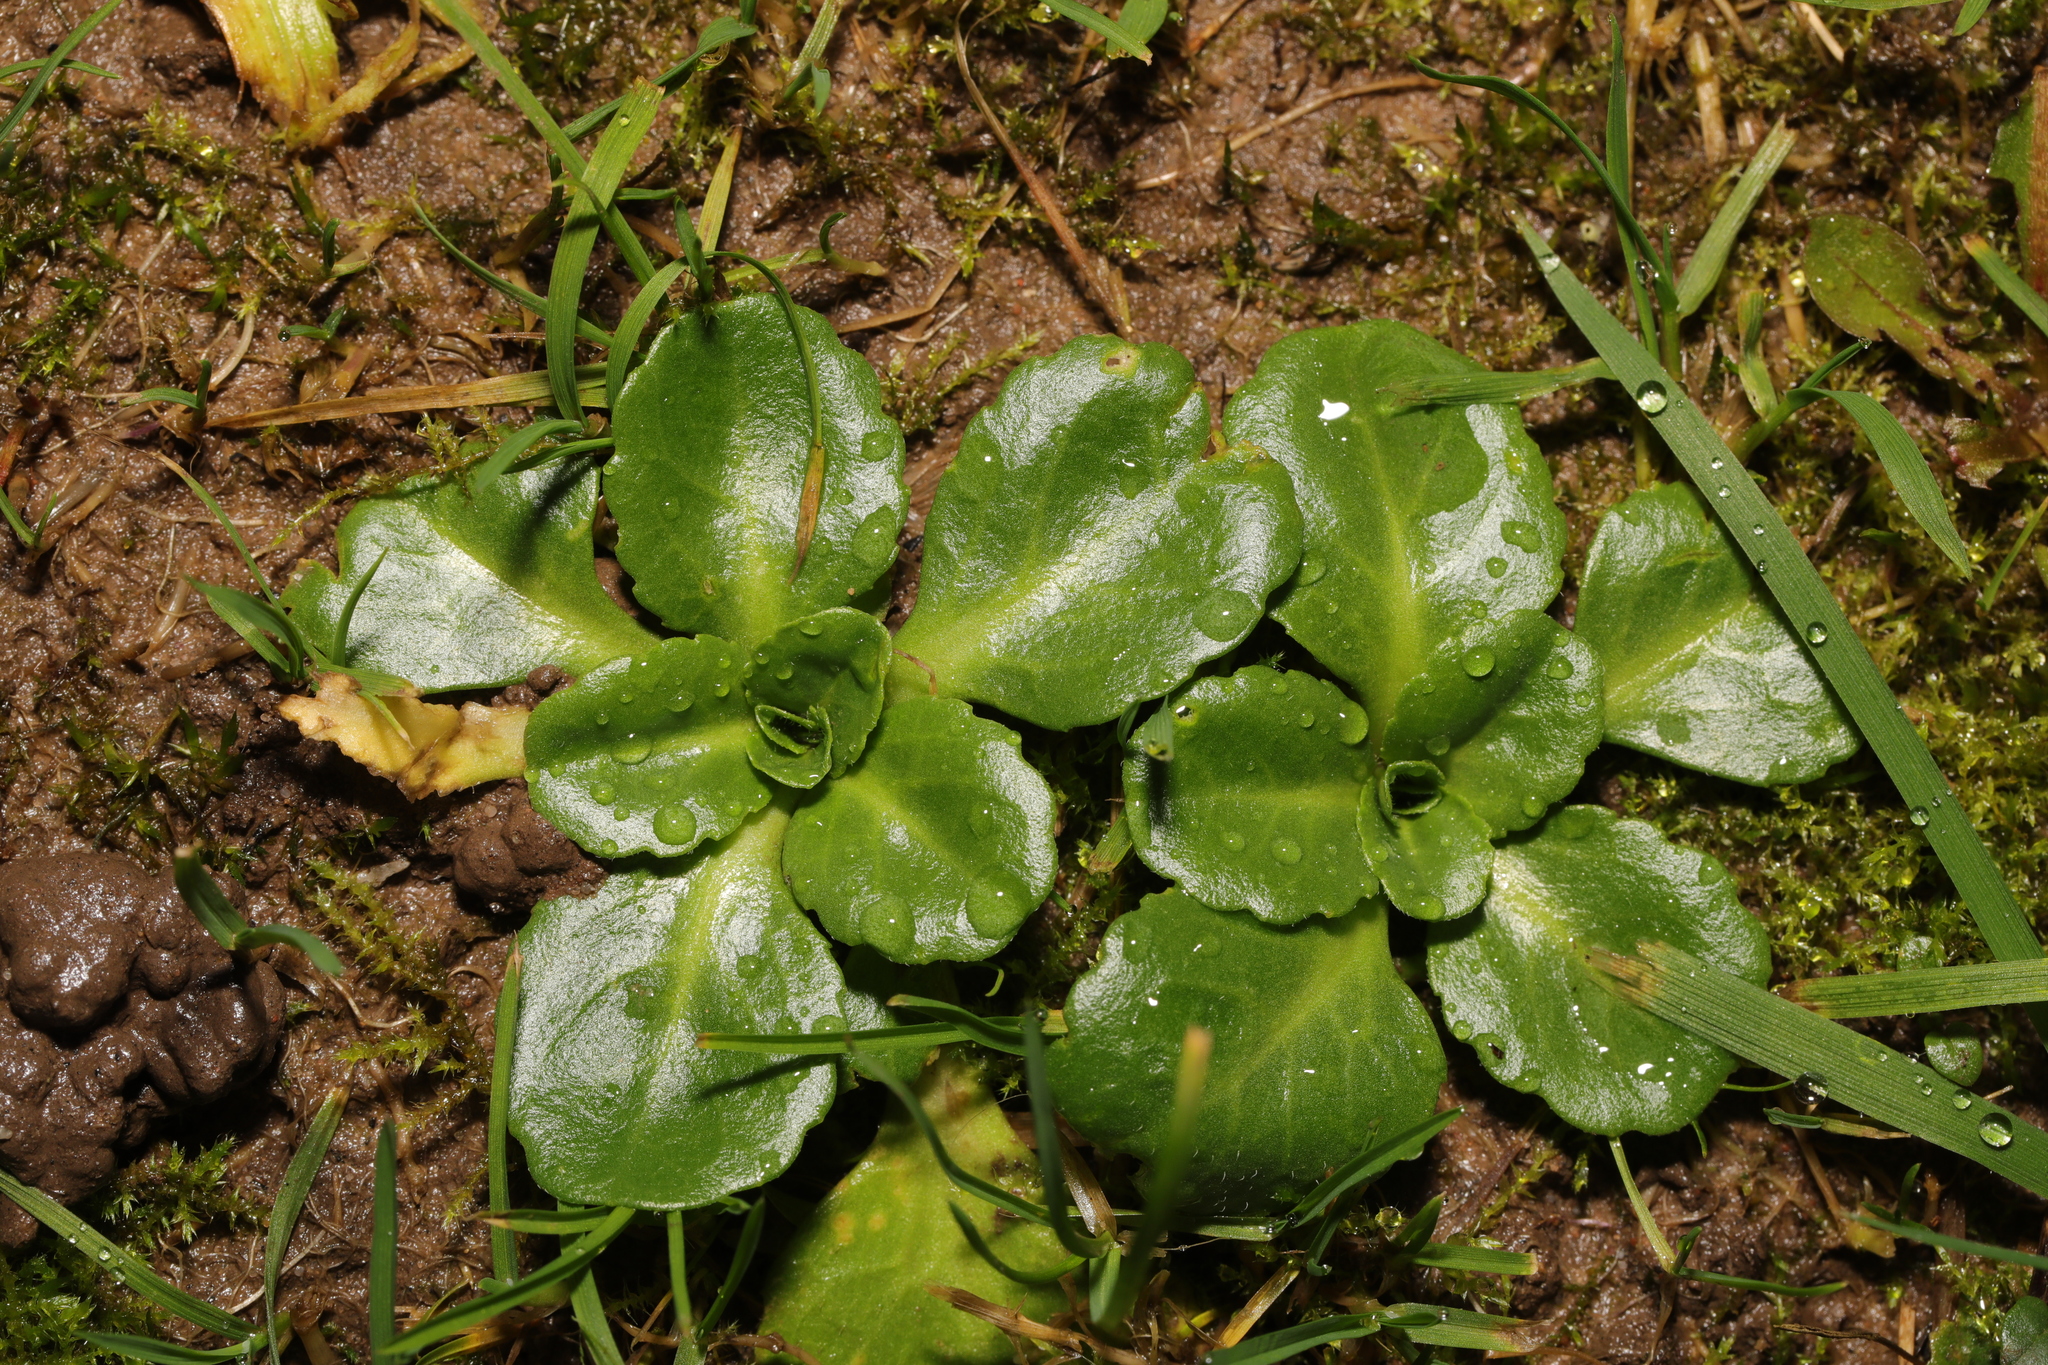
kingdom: Plantae
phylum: Tracheophyta
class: Magnoliopsida
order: Asterales
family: Asteraceae
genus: Bellis
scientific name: Bellis perennis
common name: Lawndaisy
